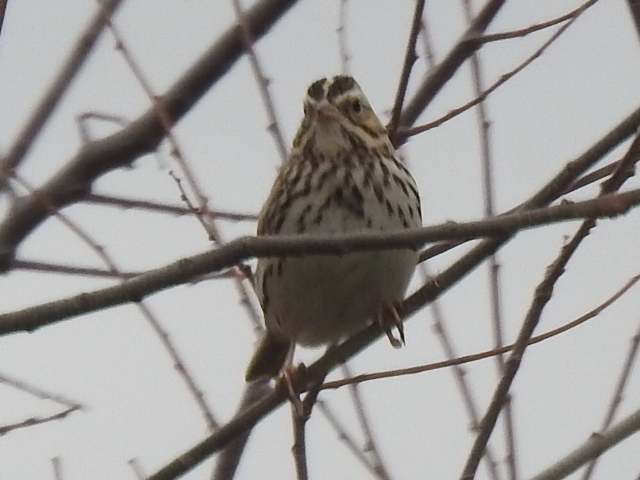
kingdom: Animalia
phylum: Chordata
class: Aves
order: Passeriformes
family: Passerellidae
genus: Passerculus
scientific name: Passerculus sandwichensis
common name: Savannah sparrow
